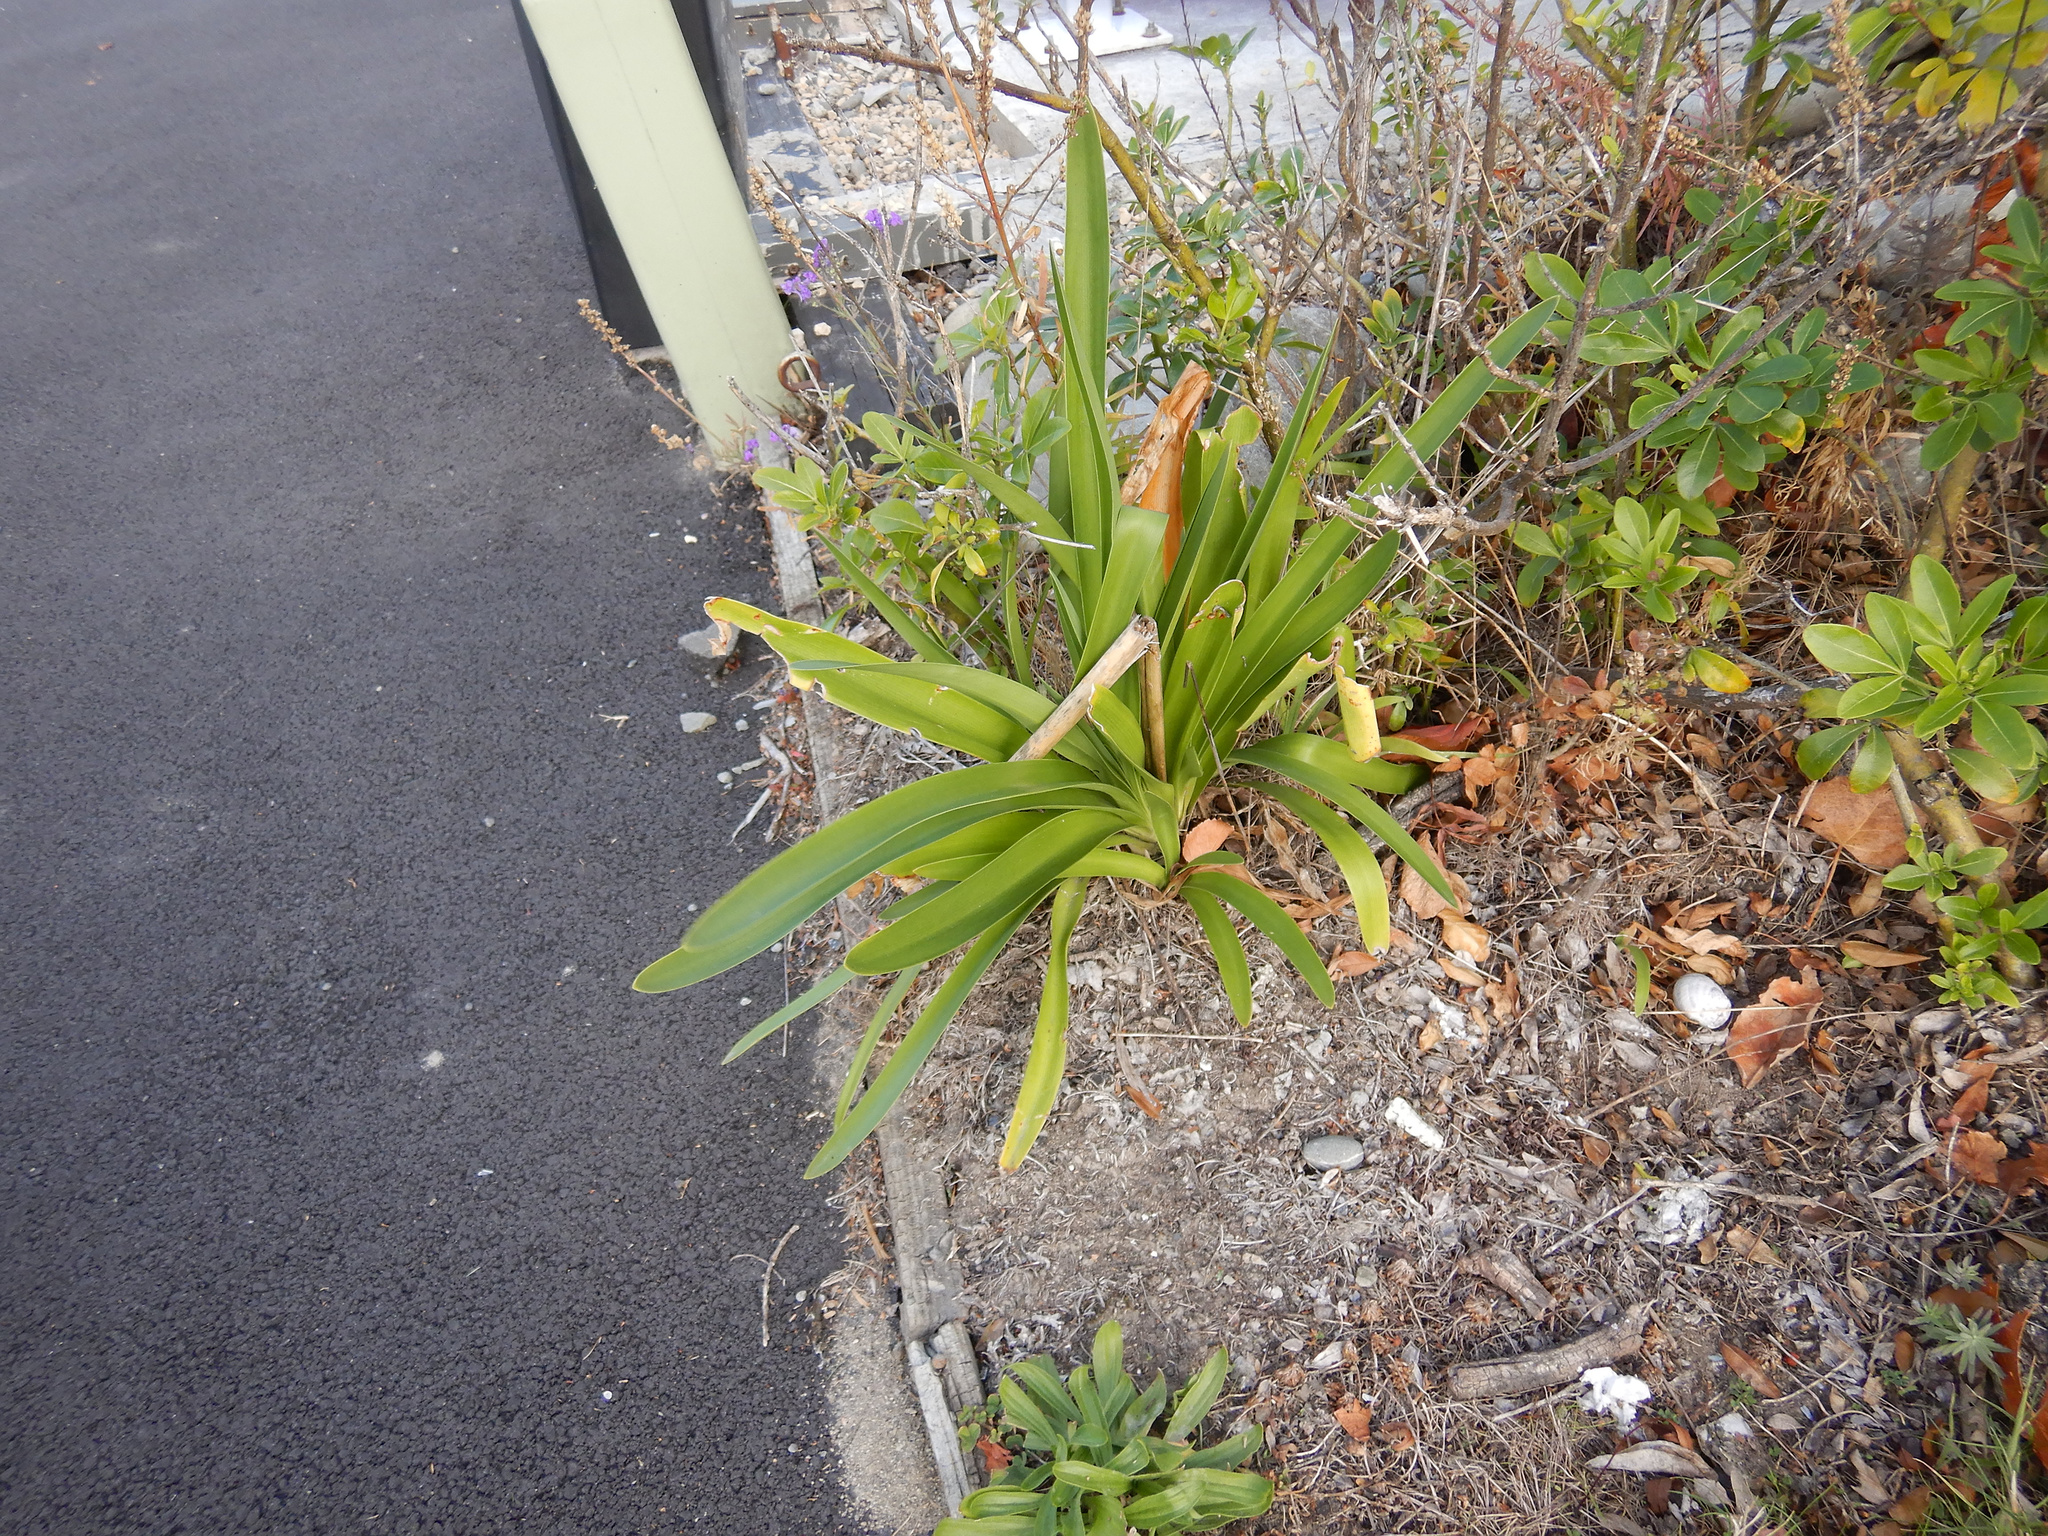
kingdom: Plantae
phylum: Tracheophyta
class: Liliopsida
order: Asparagales
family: Amaryllidaceae
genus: Agapanthus
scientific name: Agapanthus praecox
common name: African-lily
